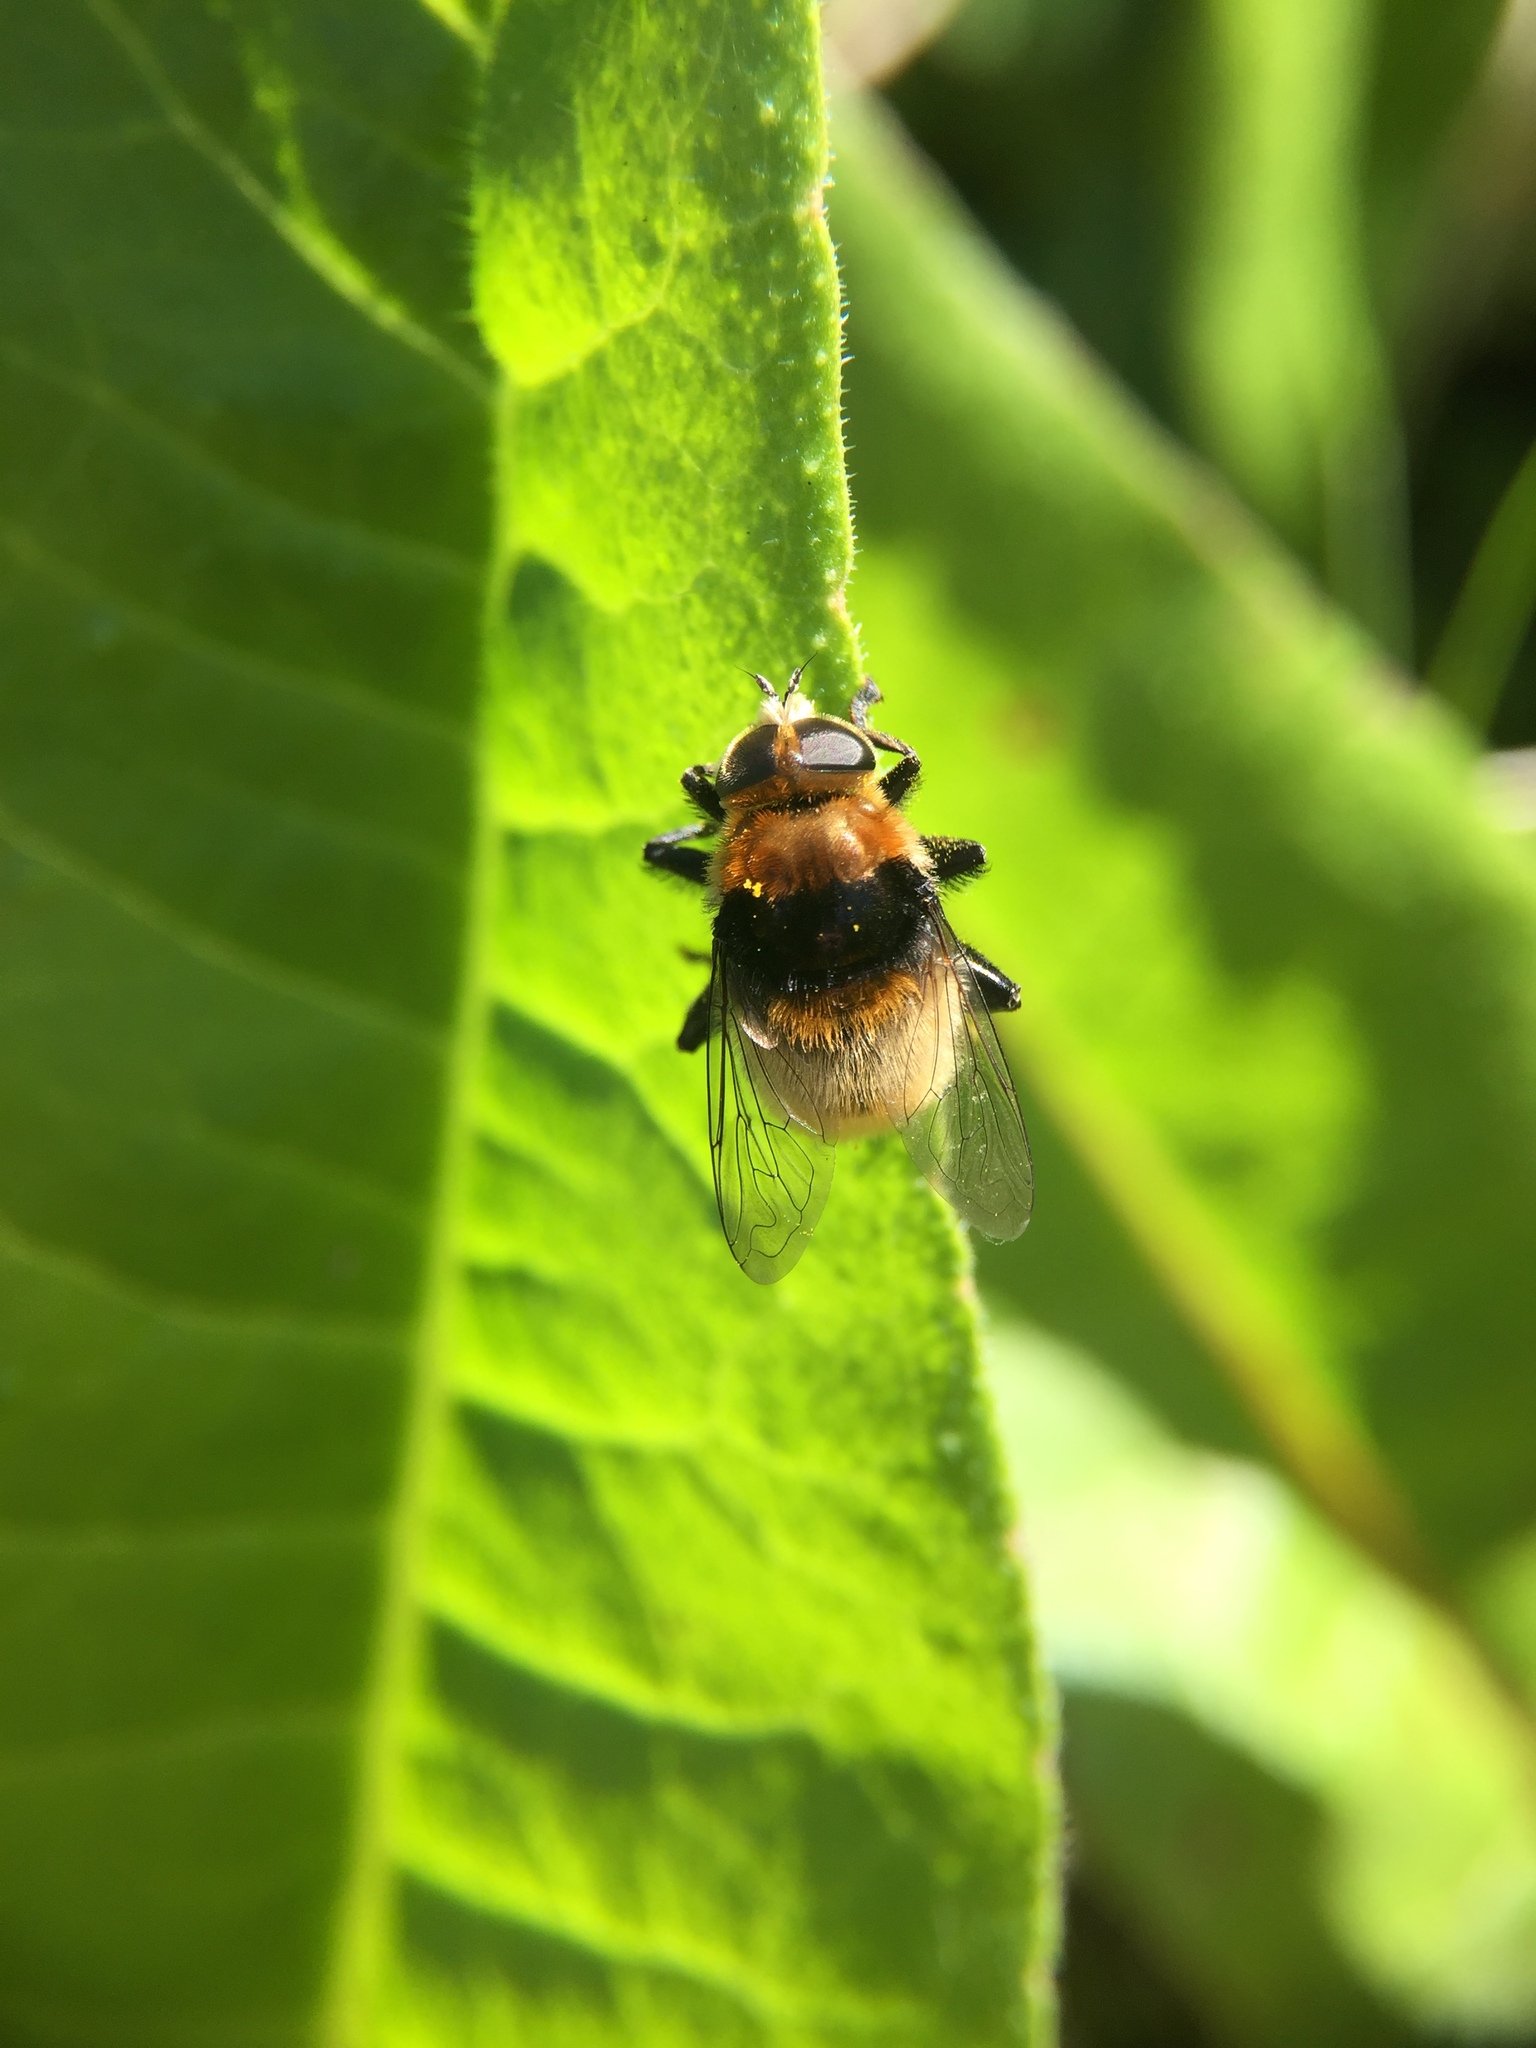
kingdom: Animalia
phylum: Arthropoda
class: Insecta
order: Diptera
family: Syrphidae
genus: Merodon
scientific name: Merodon equestris
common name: Greater bulb-fly
